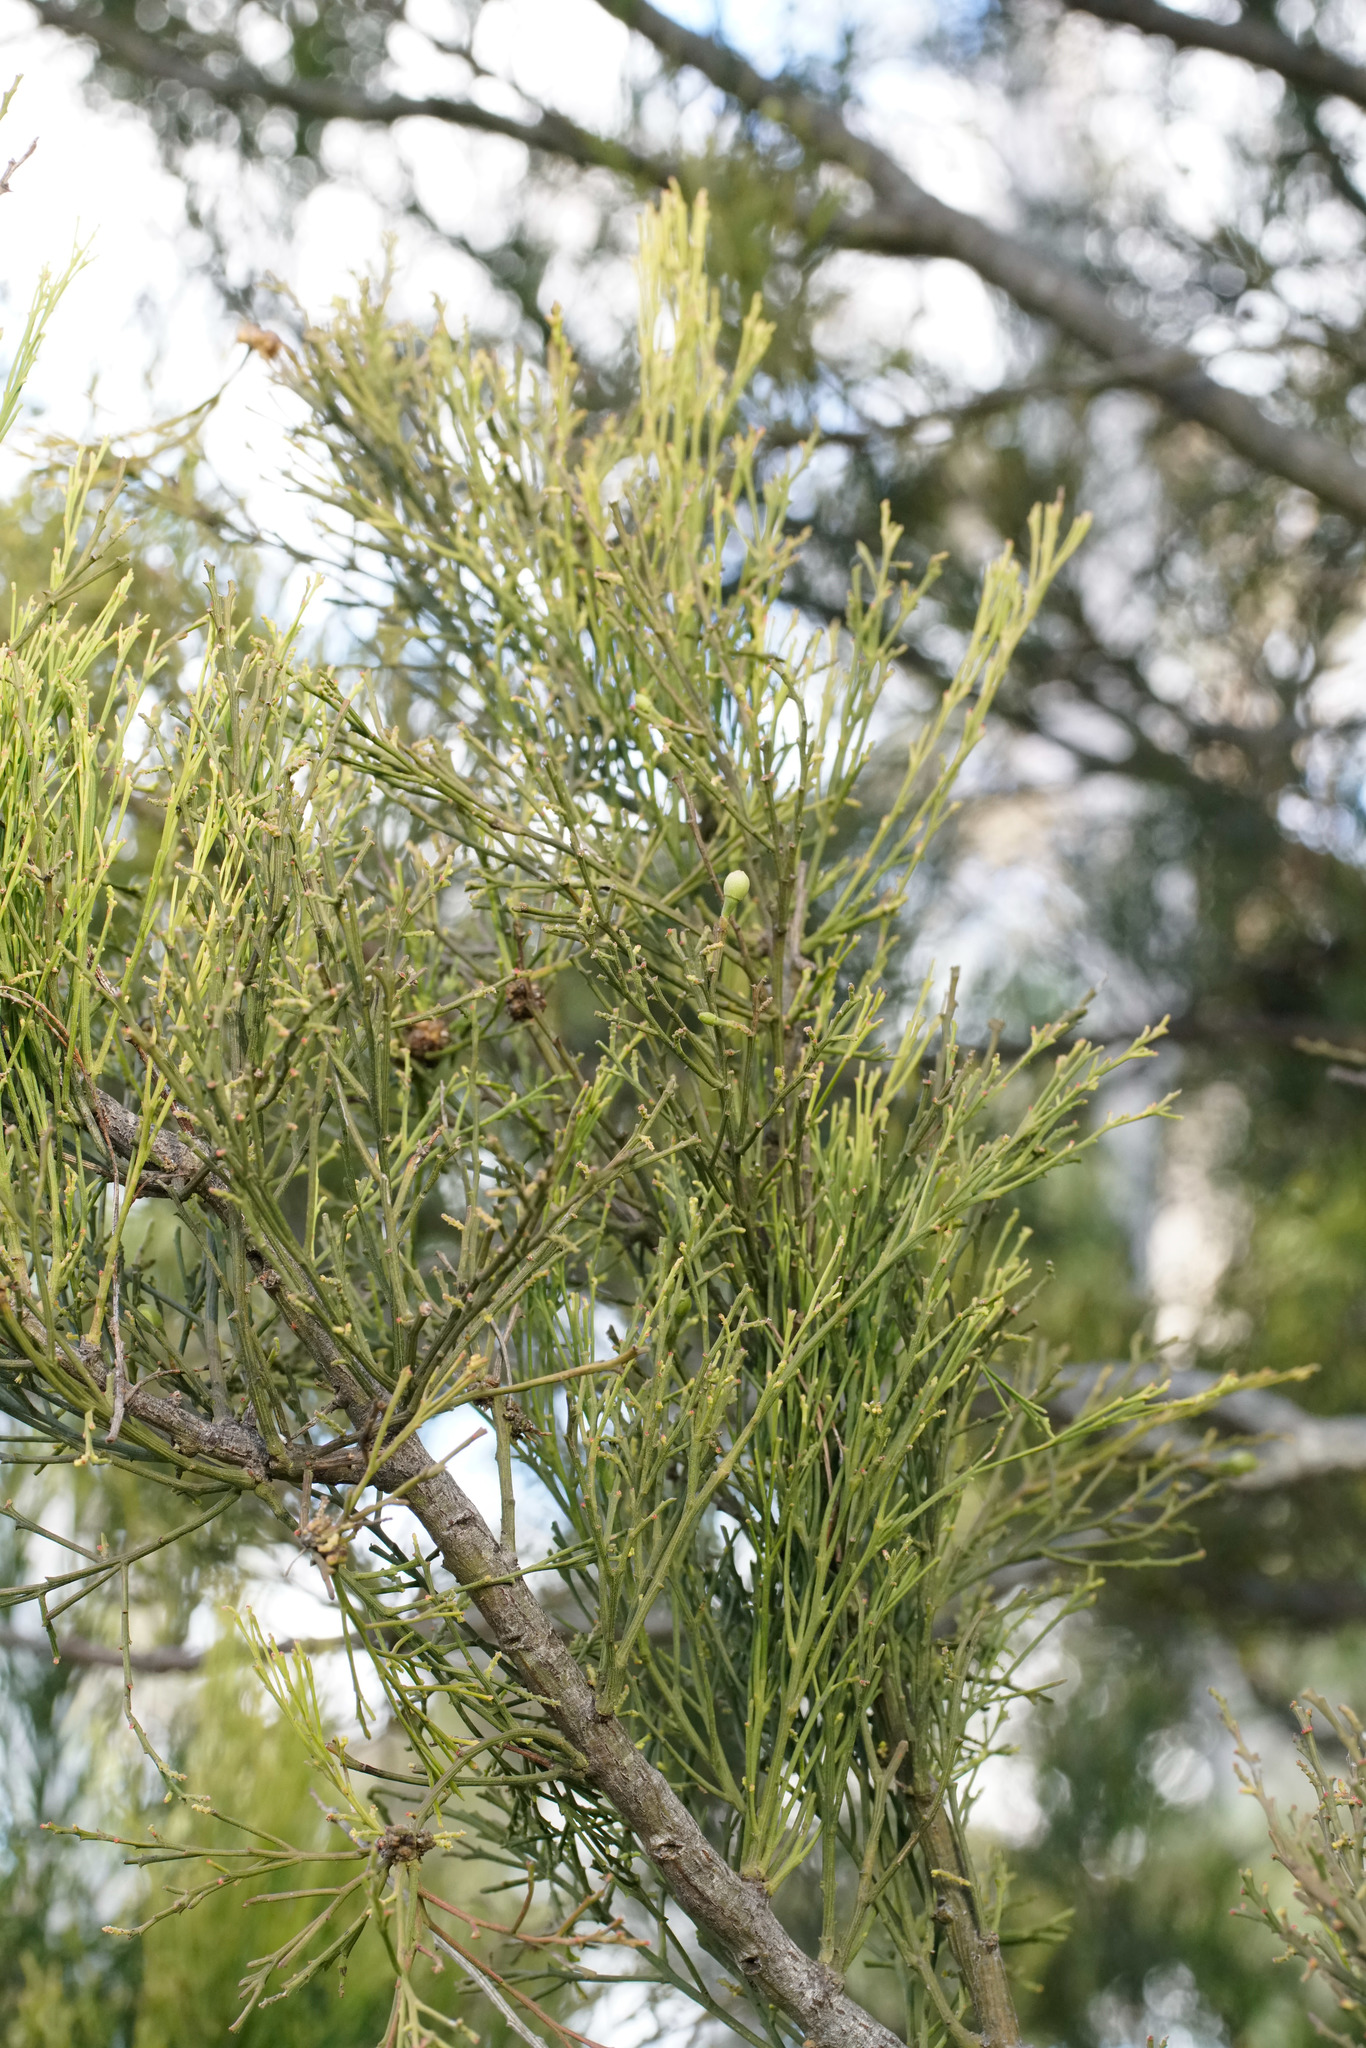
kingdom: Plantae
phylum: Tracheophyta
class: Magnoliopsida
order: Santalales
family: Santalaceae
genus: Exocarpos
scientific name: Exocarpos cupressiformis
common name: Cherry ballart
